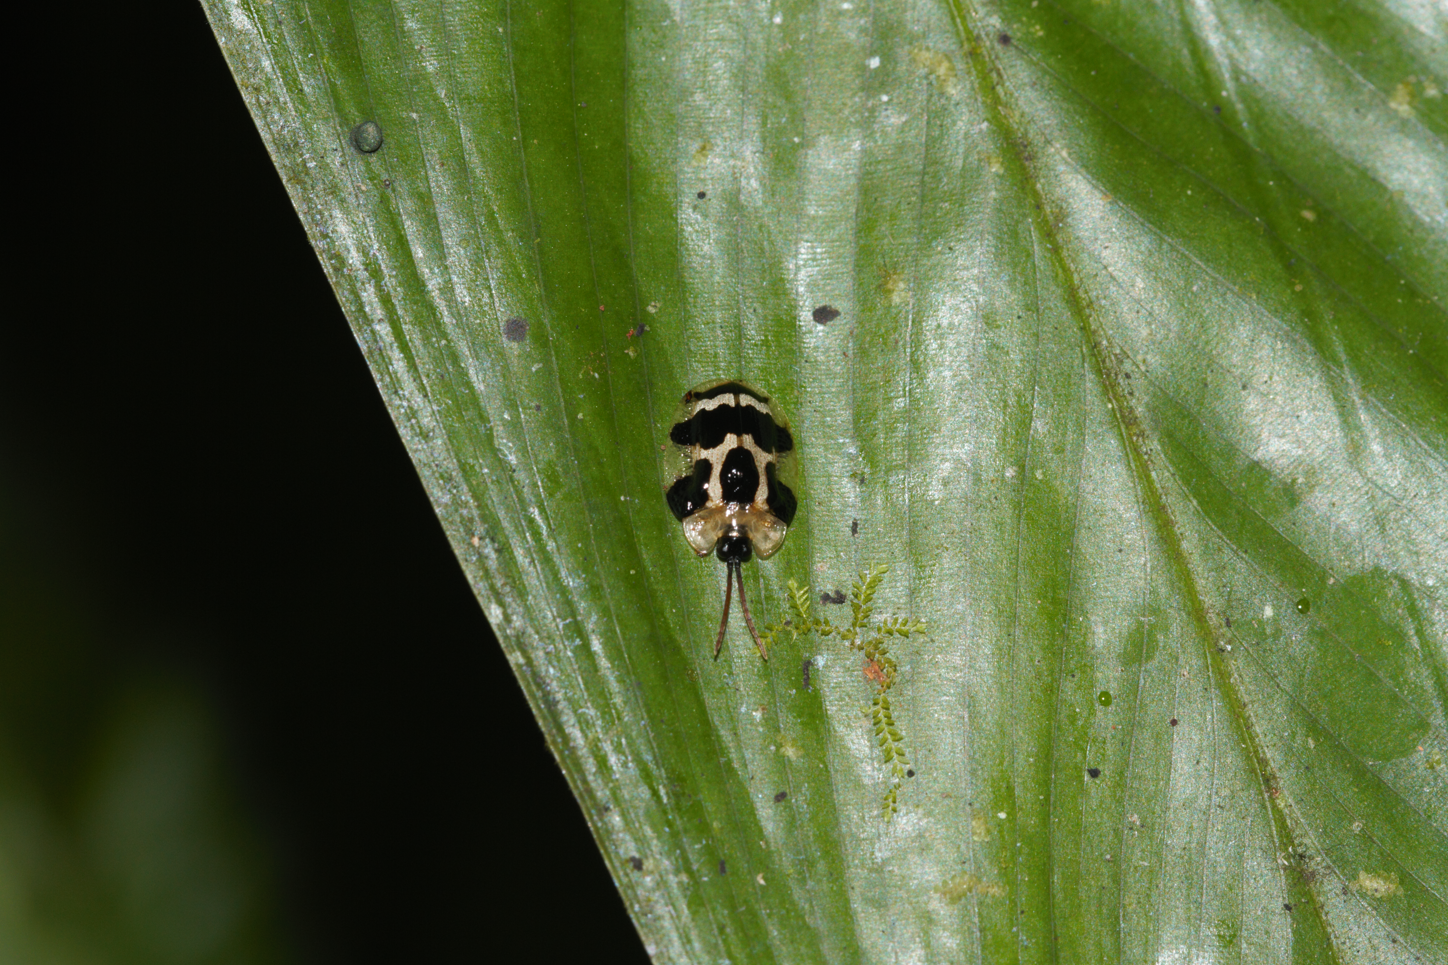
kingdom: Animalia
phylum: Arthropoda
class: Insecta
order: Coleoptera
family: Chrysomelidae
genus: Aslamidium
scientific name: Aslamidium
